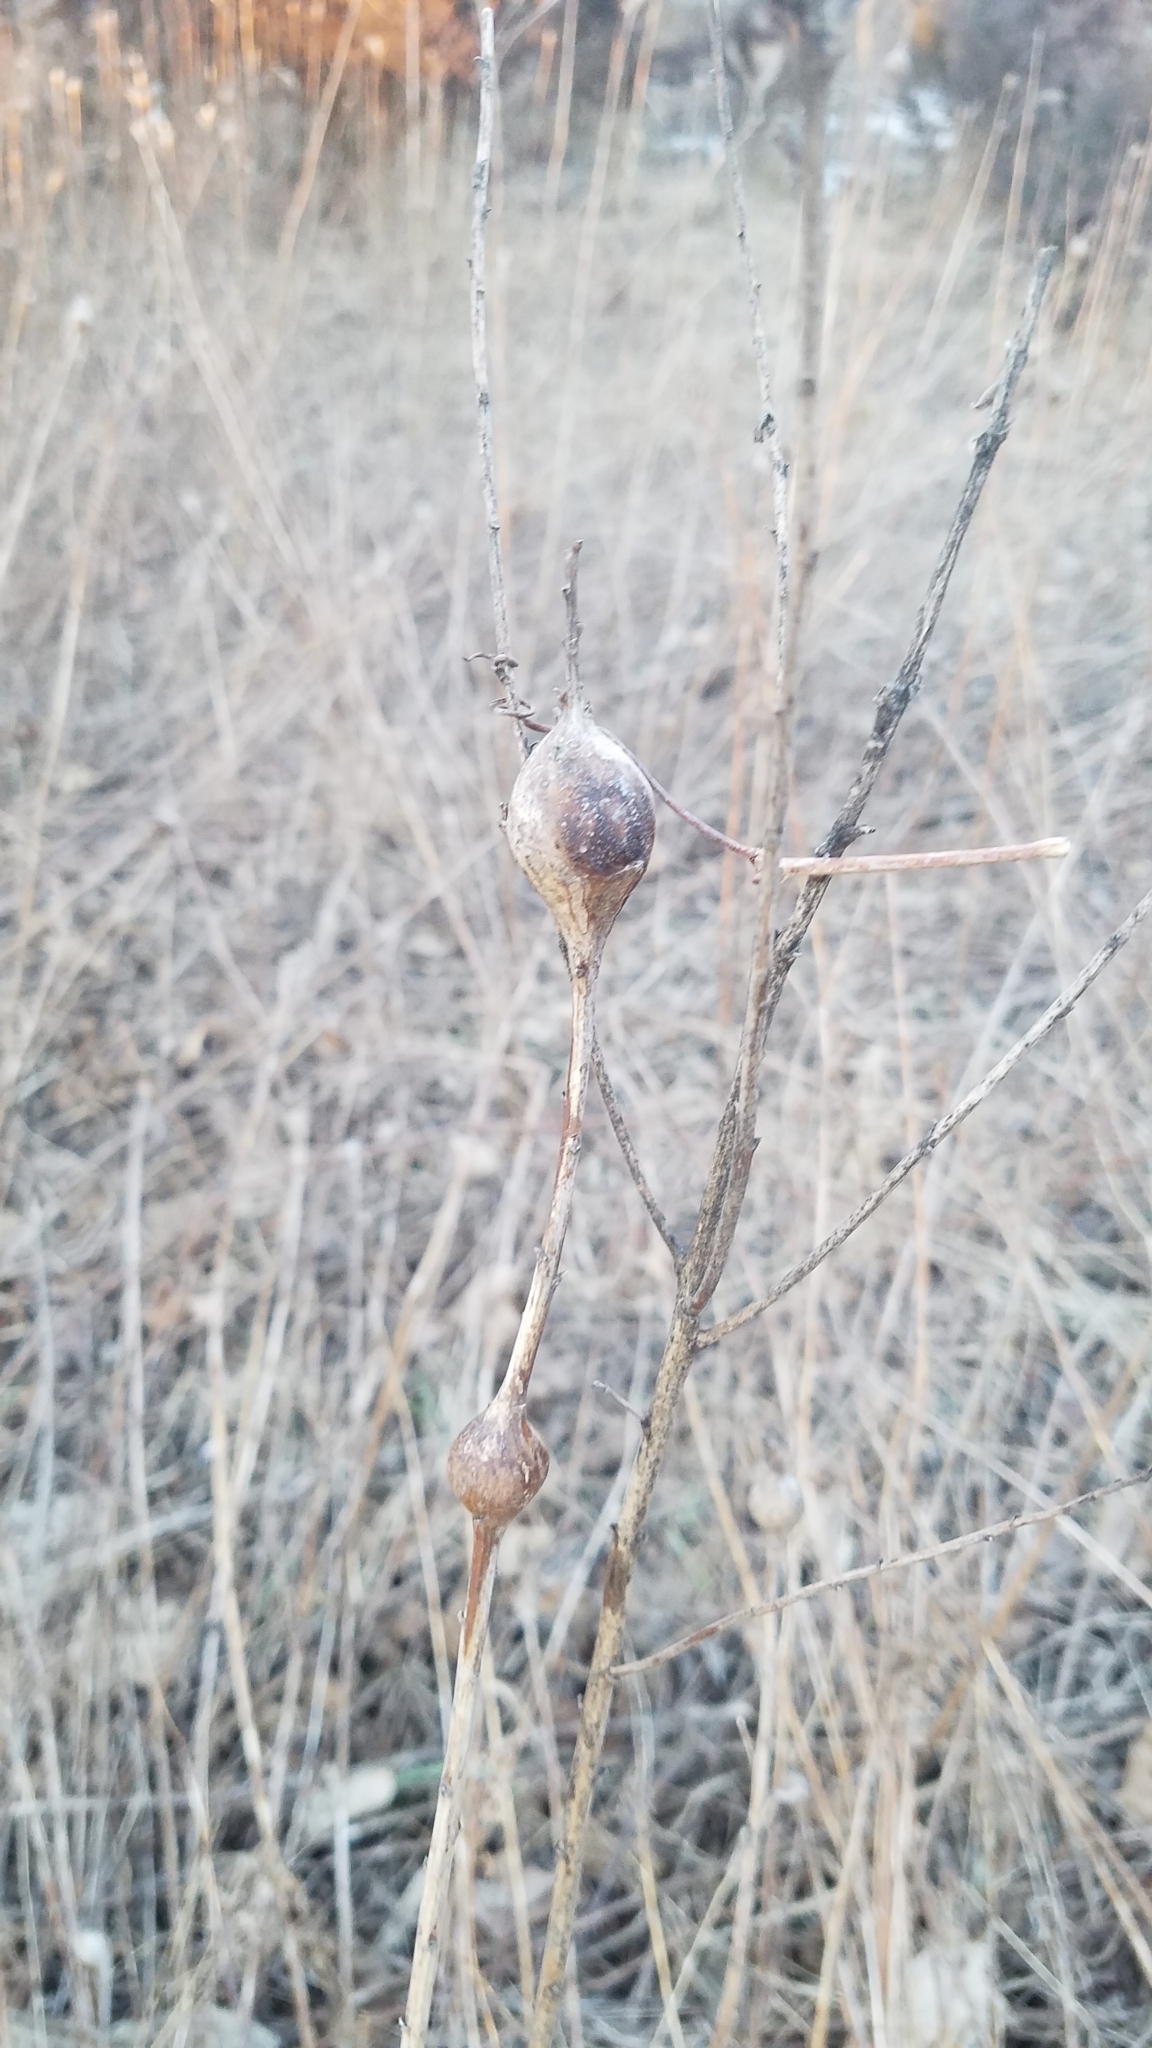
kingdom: Animalia
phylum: Arthropoda
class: Insecta
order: Diptera
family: Tephritidae
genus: Eurosta
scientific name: Eurosta solidaginis
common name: Goldenrod gall fly
